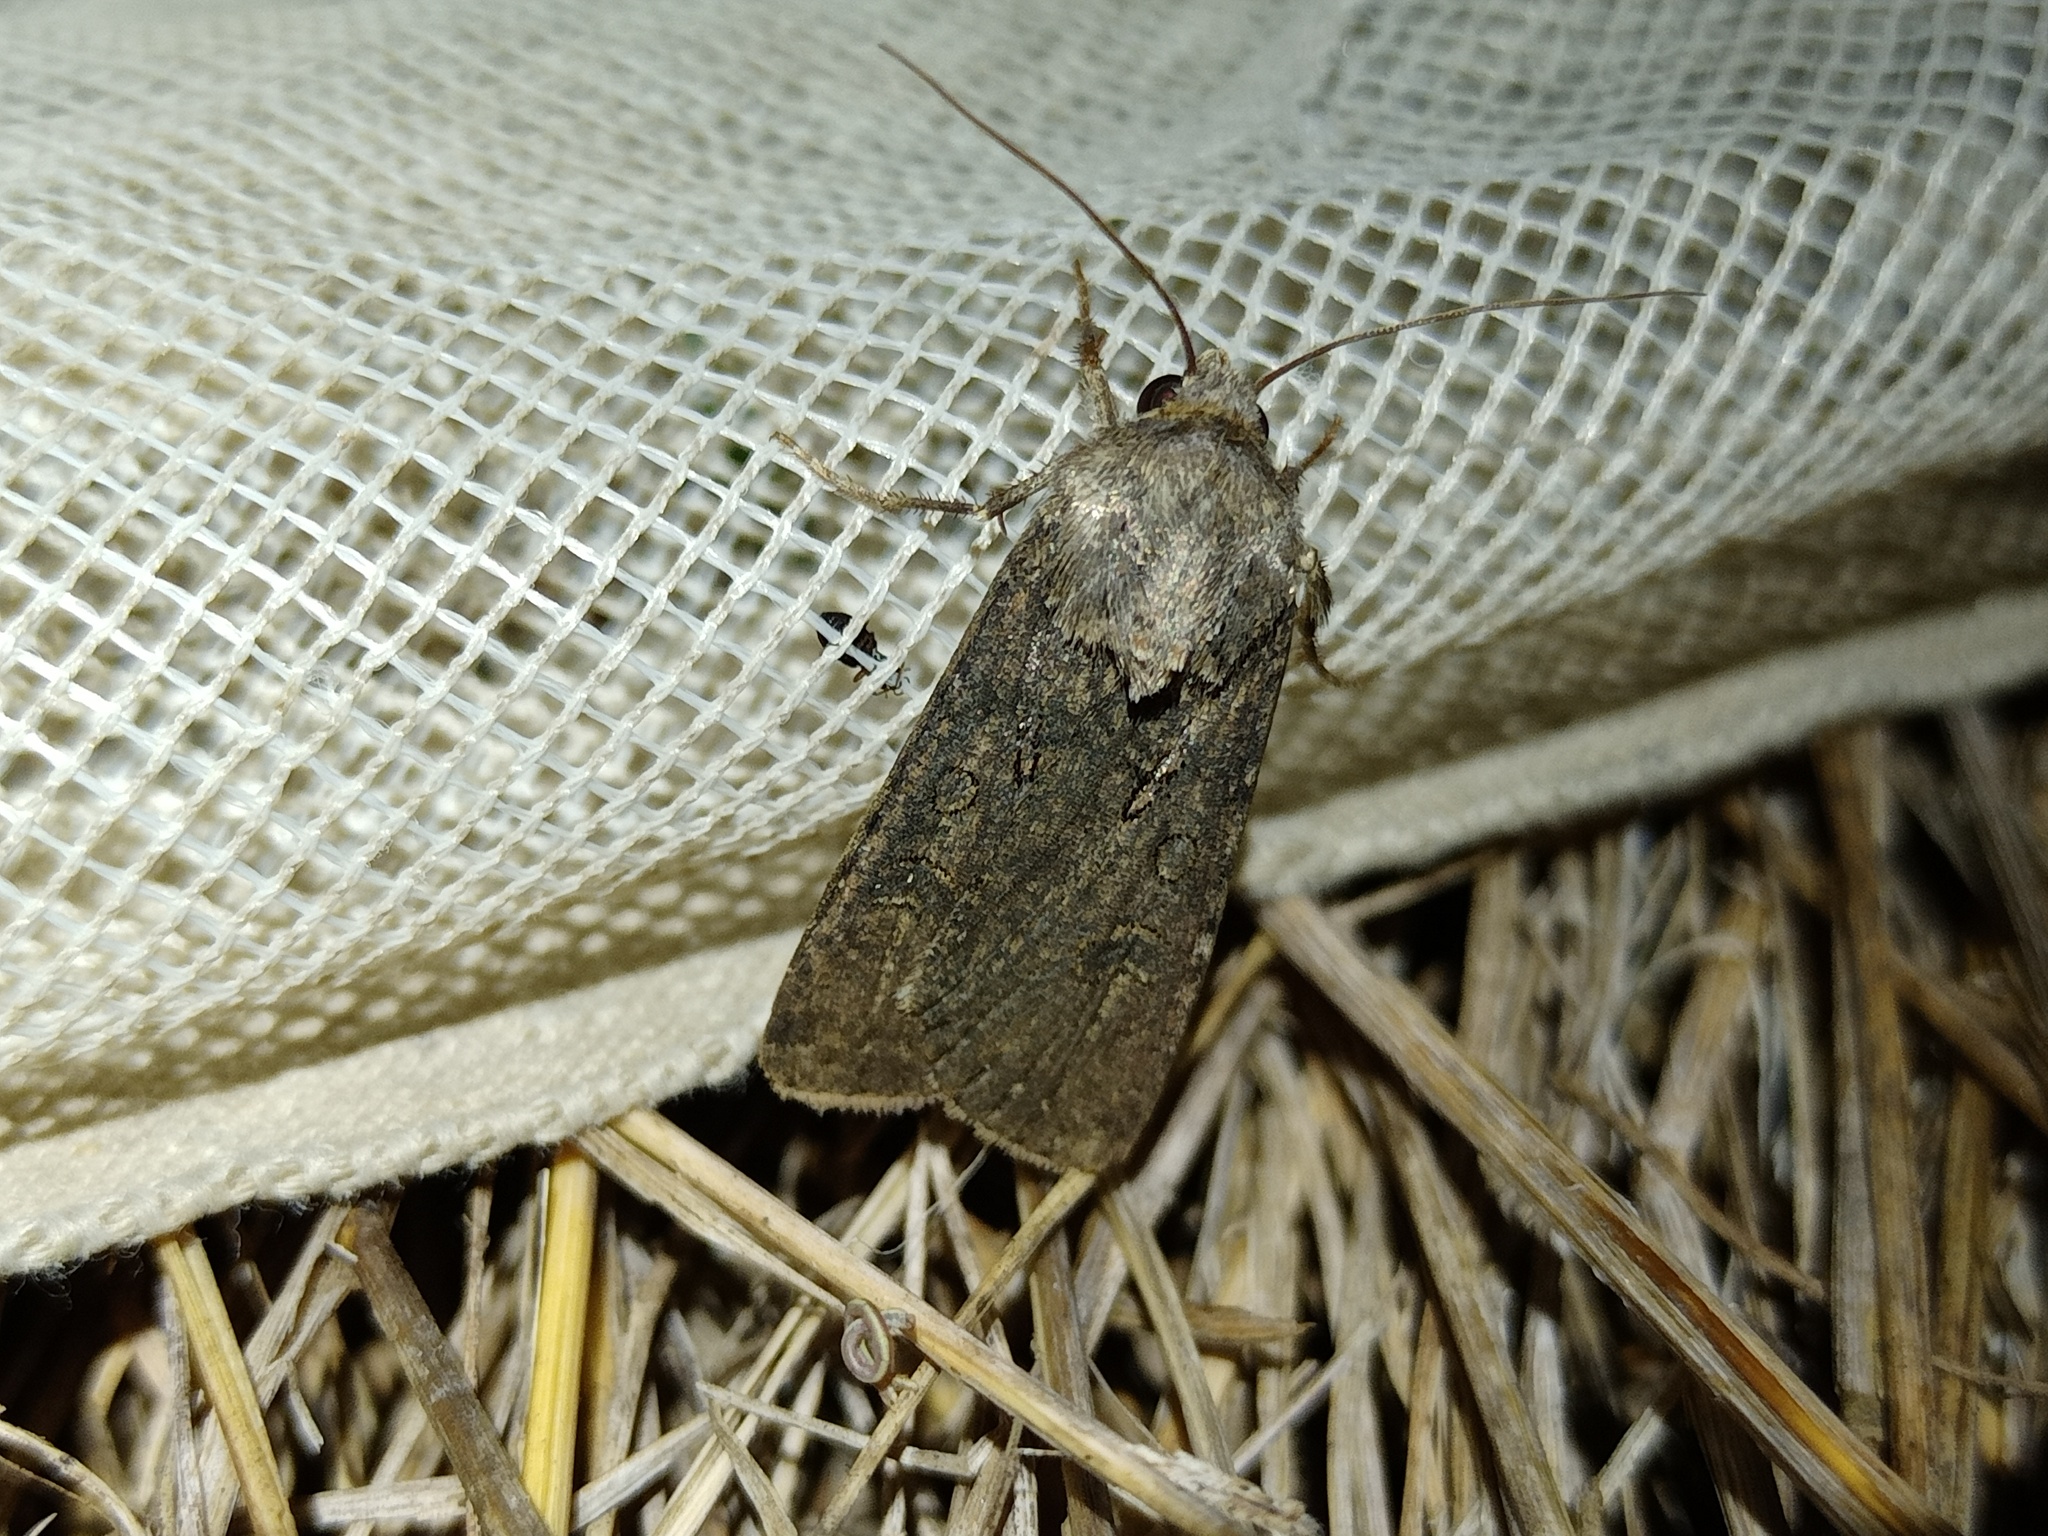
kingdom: Animalia
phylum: Arthropoda
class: Insecta
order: Lepidoptera
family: Noctuidae
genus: Agrotis
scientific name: Agrotis segetum
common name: Turnip moth
